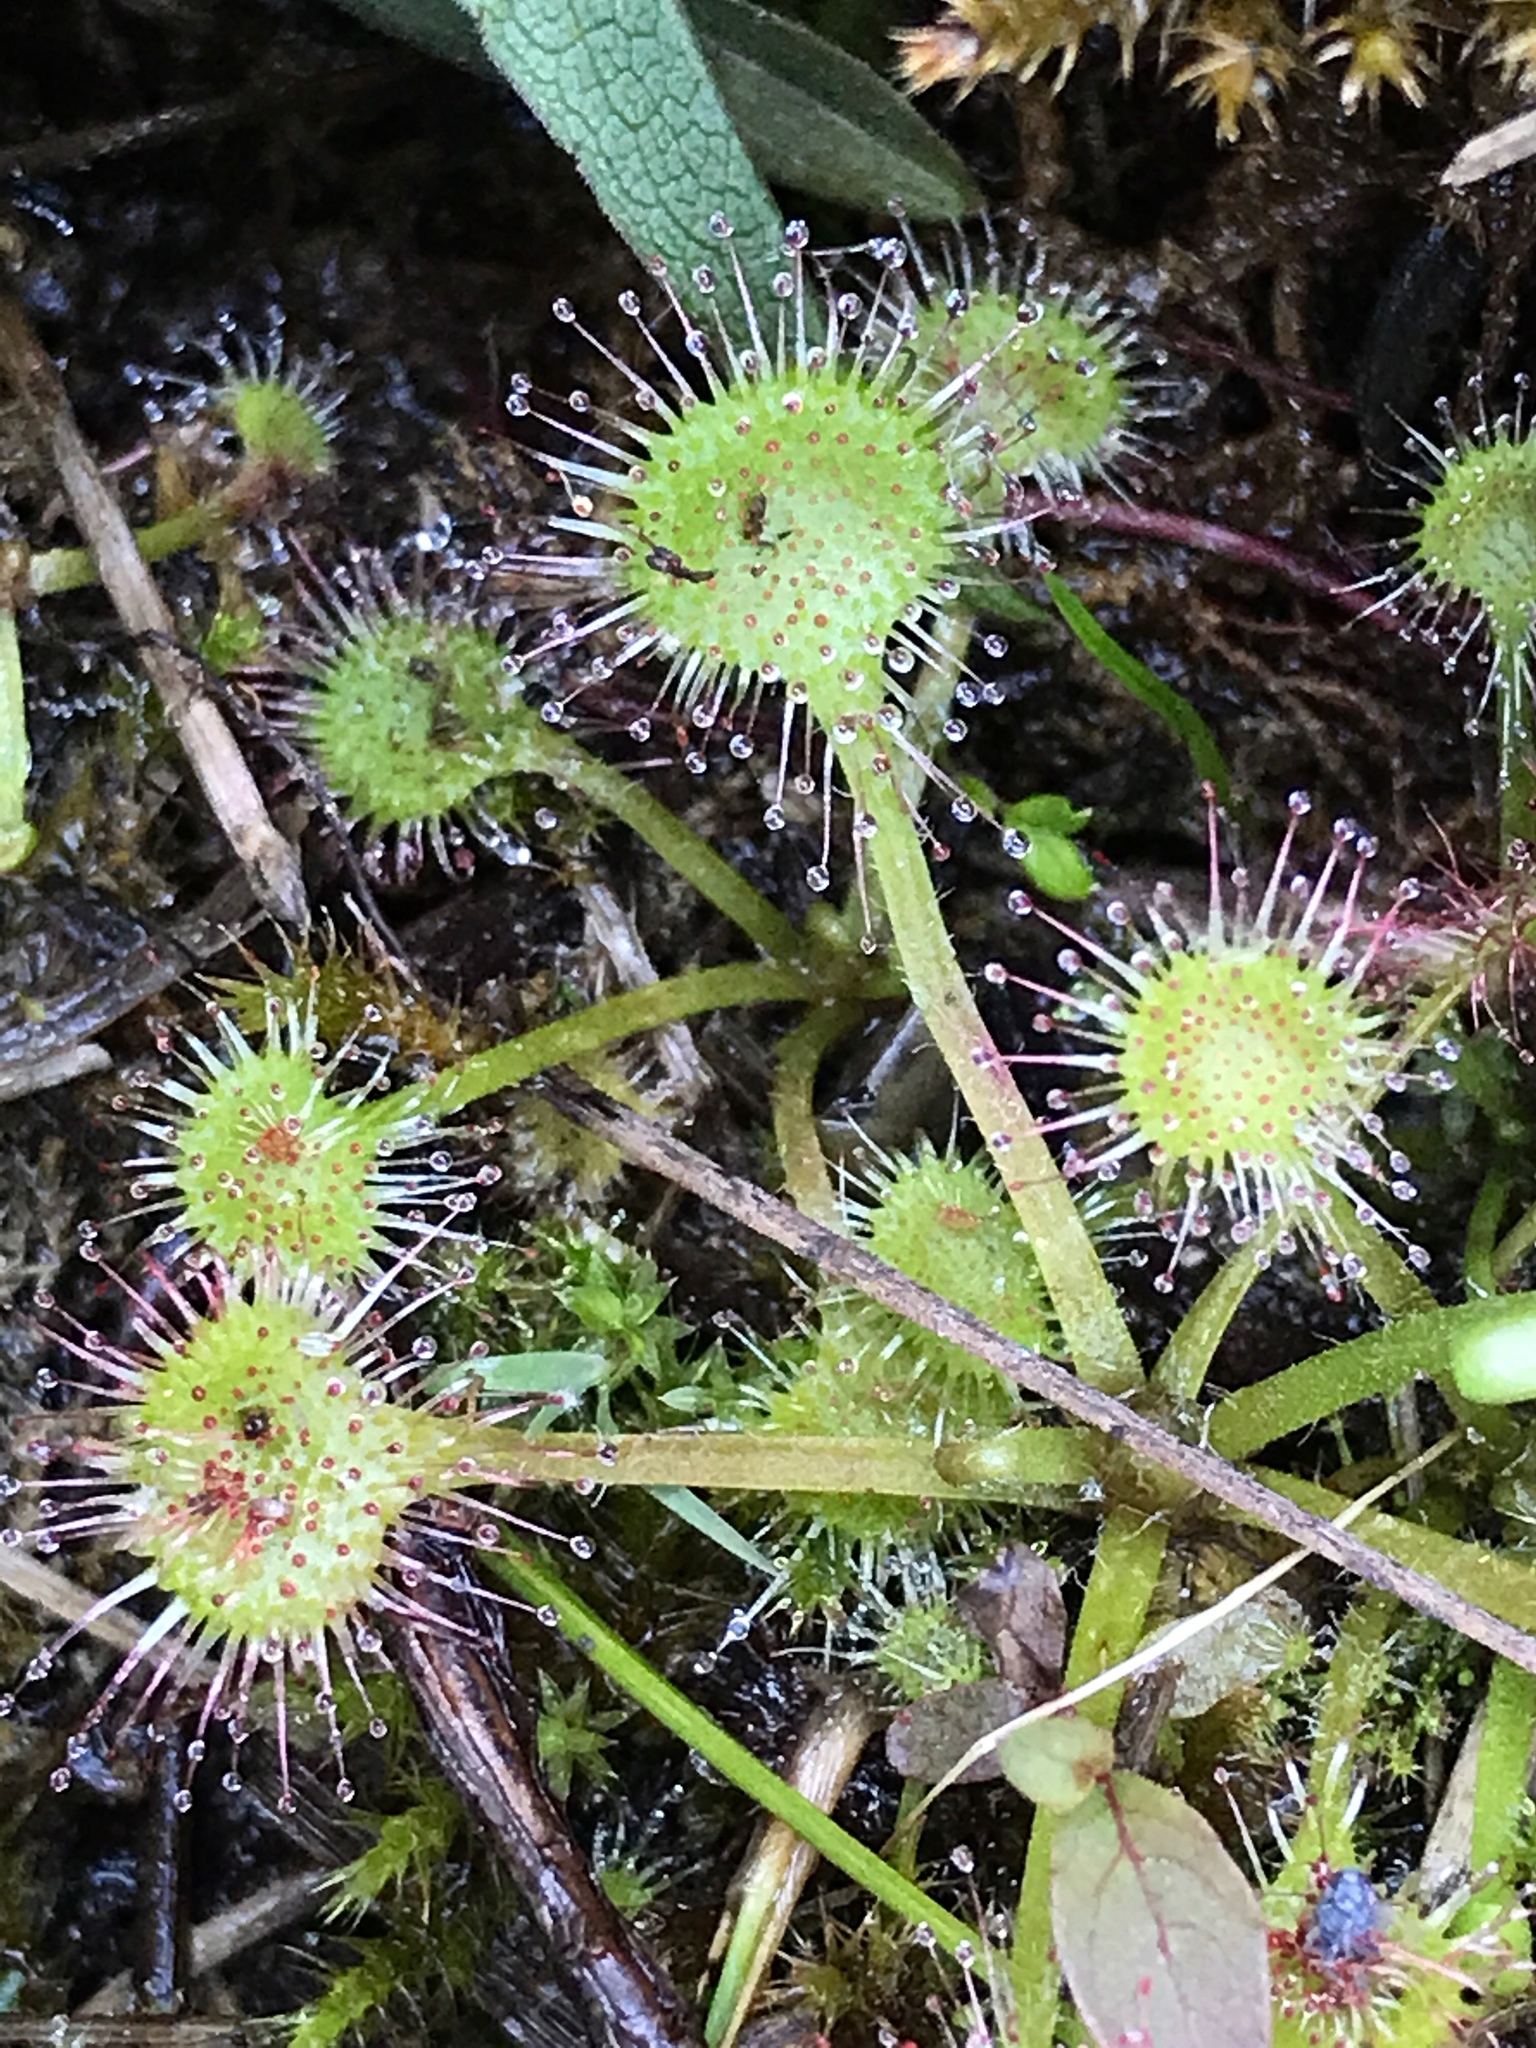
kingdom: Plantae
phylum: Tracheophyta
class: Magnoliopsida
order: Caryophyllales
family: Droseraceae
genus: Drosera
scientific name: Drosera rotundifolia
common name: Round-leaved sundew
